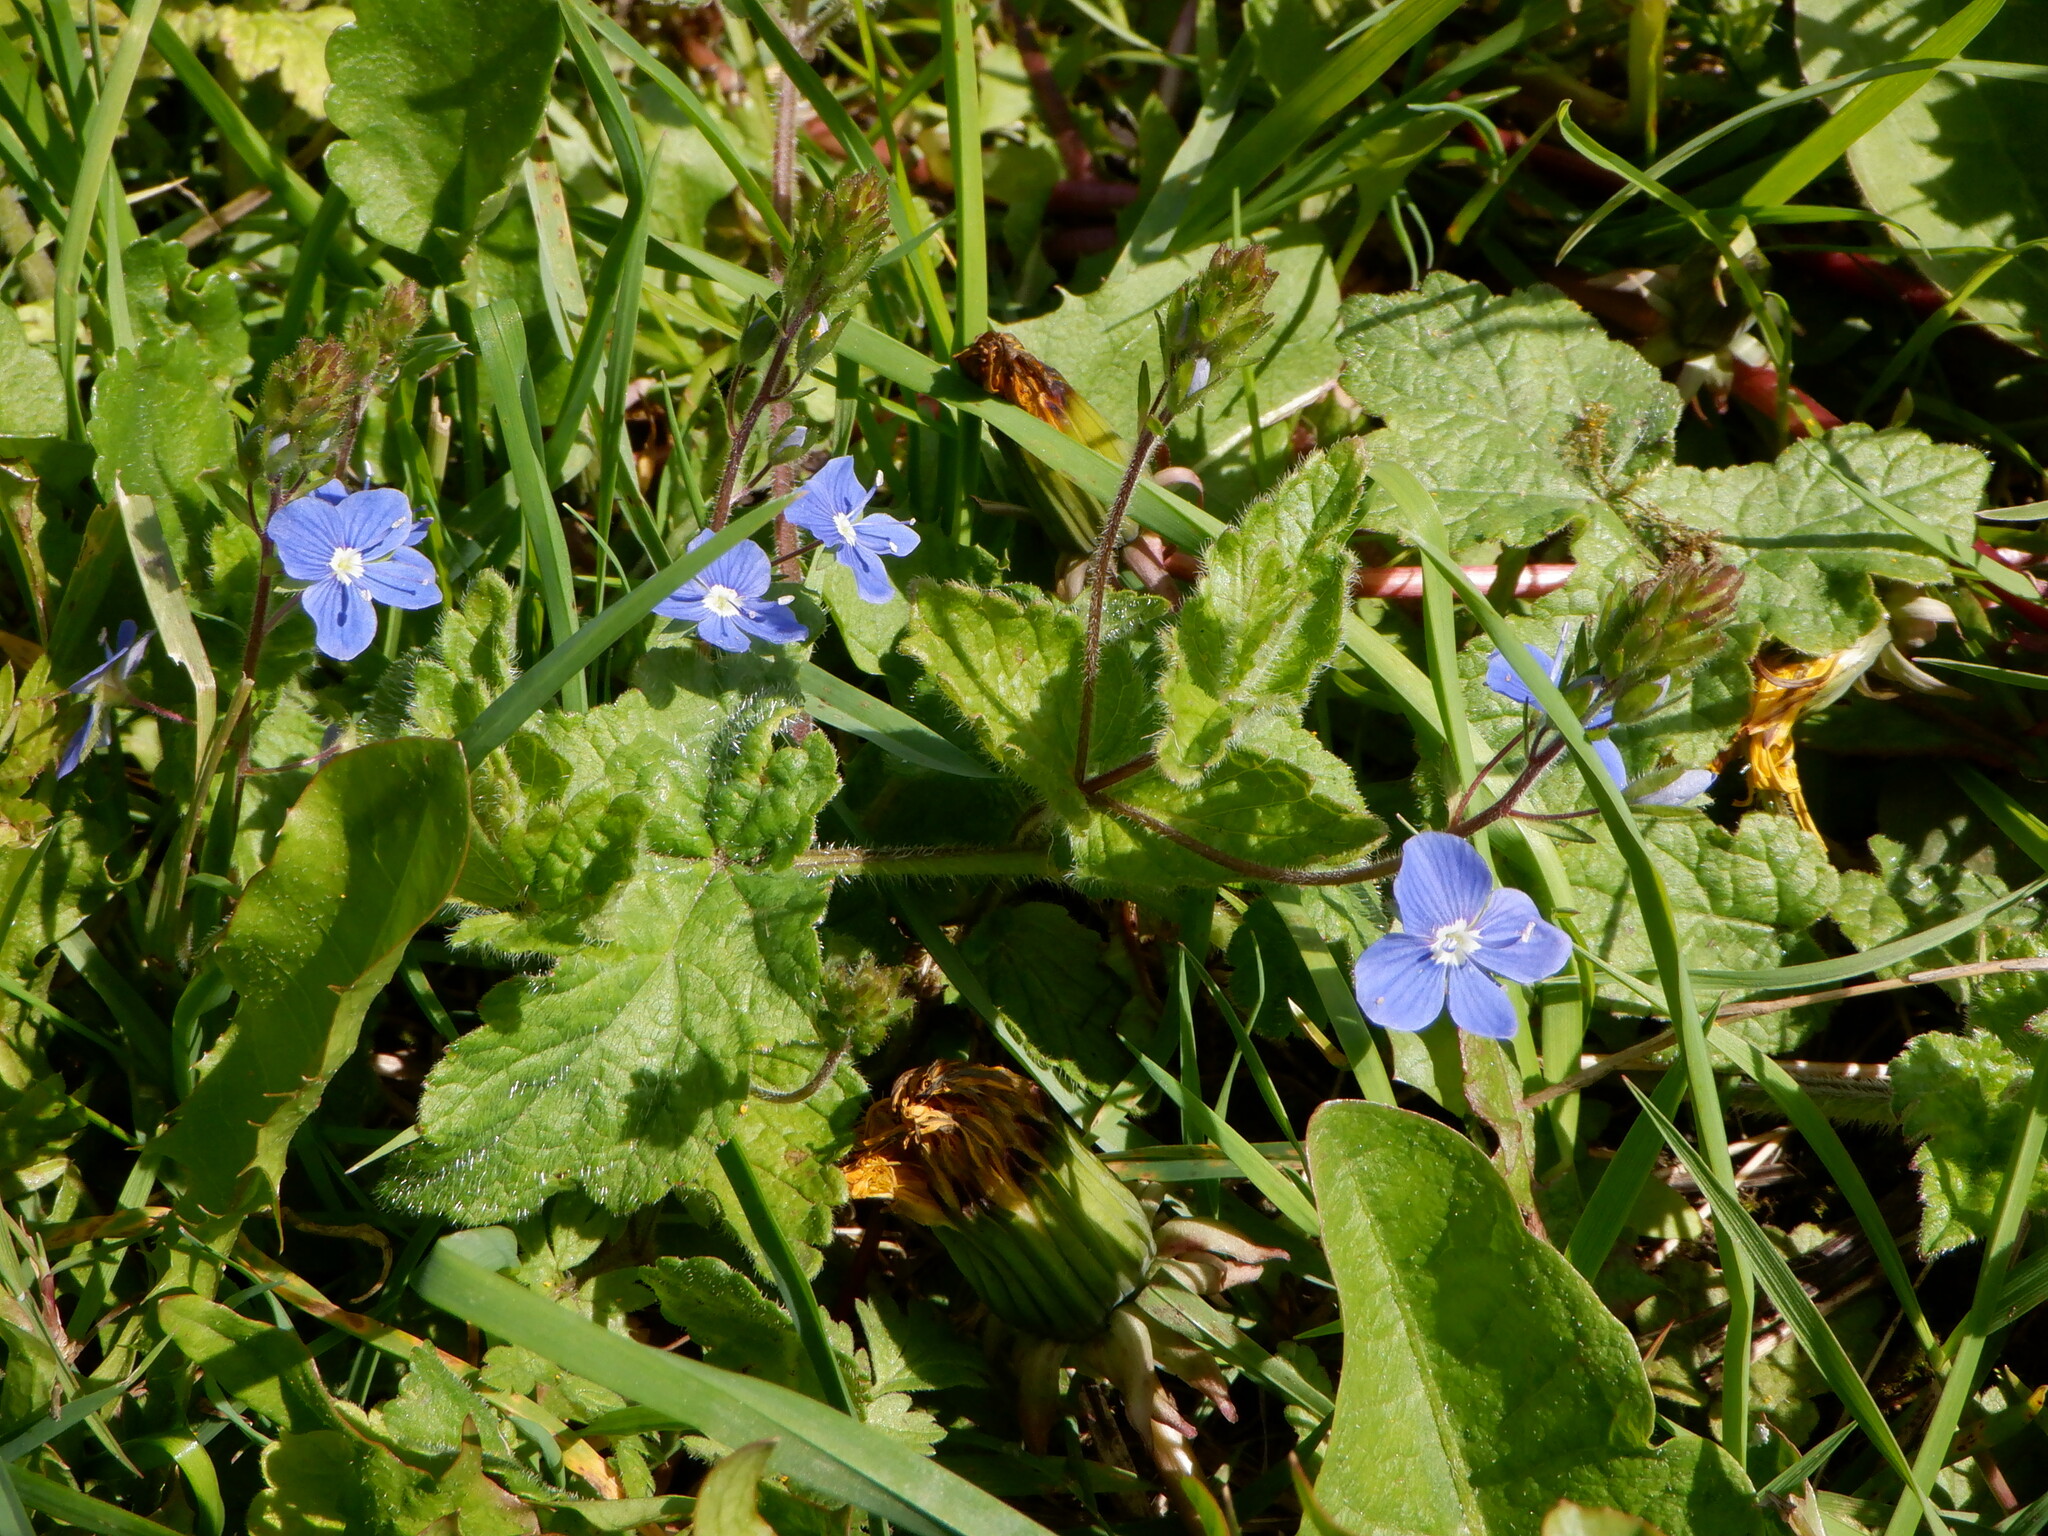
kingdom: Plantae
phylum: Tracheophyta
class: Magnoliopsida
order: Lamiales
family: Plantaginaceae
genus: Veronica
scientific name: Veronica chamaedrys
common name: Germander speedwell
